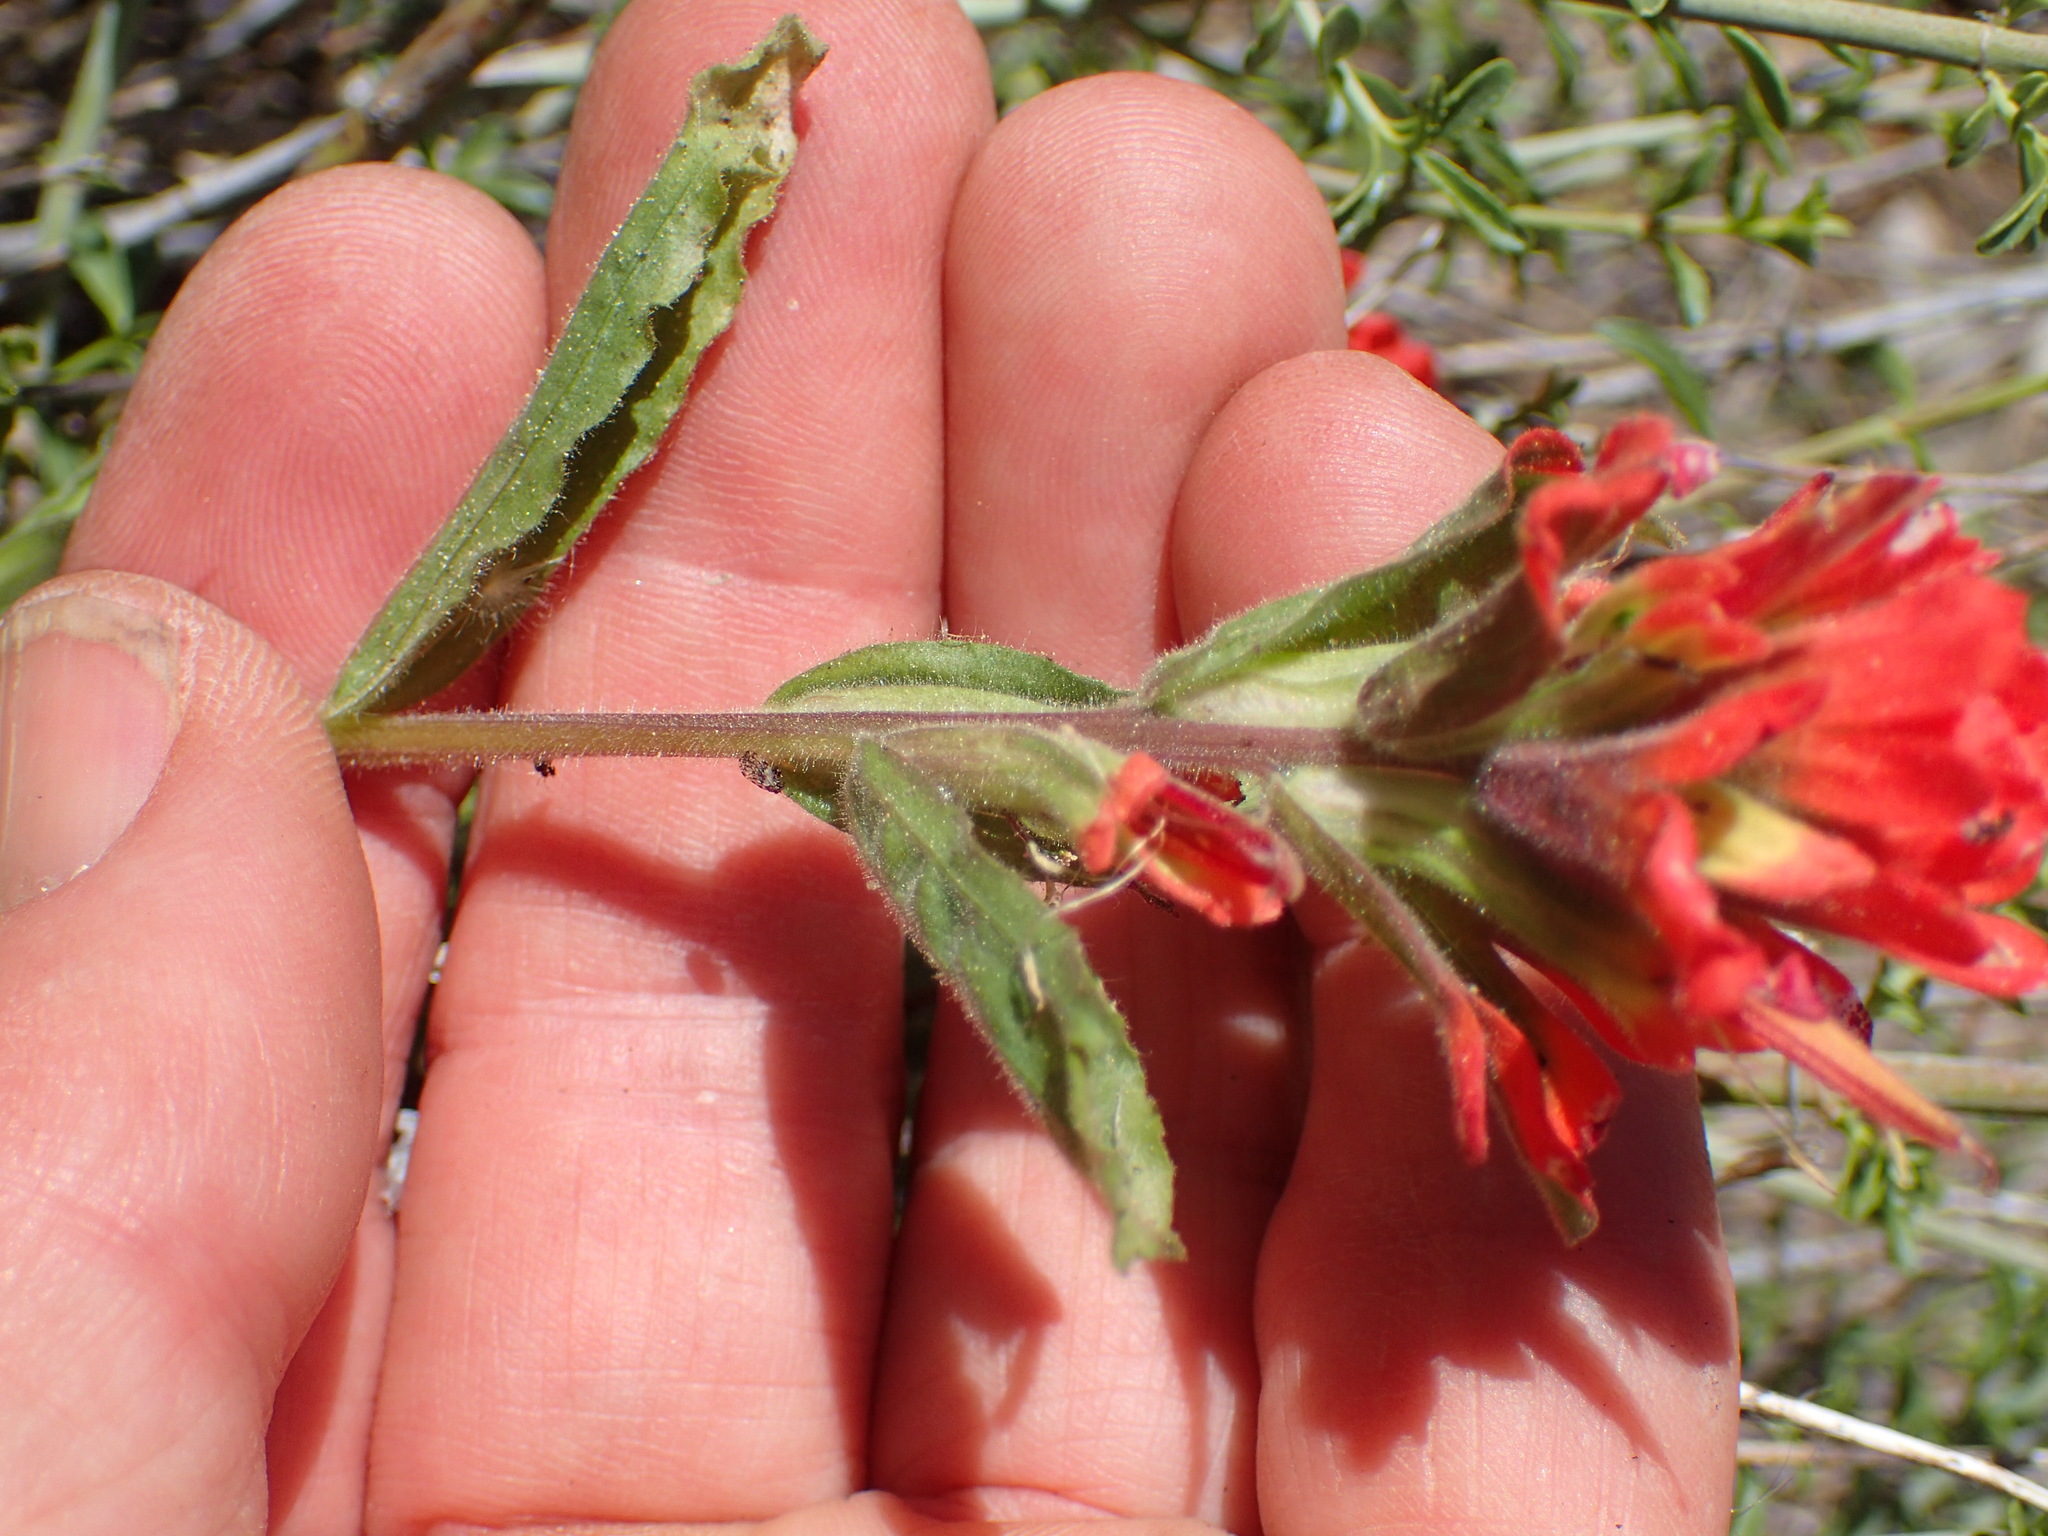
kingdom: Plantae
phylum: Tracheophyta
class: Magnoliopsida
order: Lamiales
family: Orobanchaceae
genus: Castilleja
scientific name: Castilleja applegatei
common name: Wavy-leaf paintbrush
